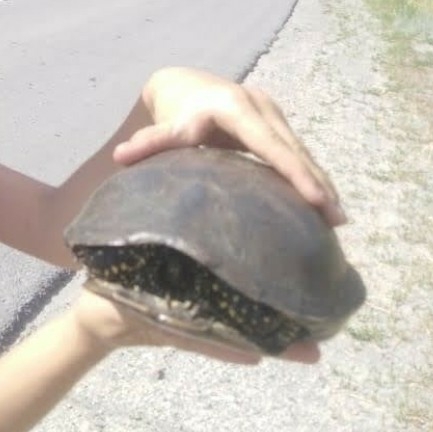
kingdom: Animalia
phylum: Chordata
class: Testudines
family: Emydidae
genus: Emys
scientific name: Emys orbicularis
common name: European pond turtle
